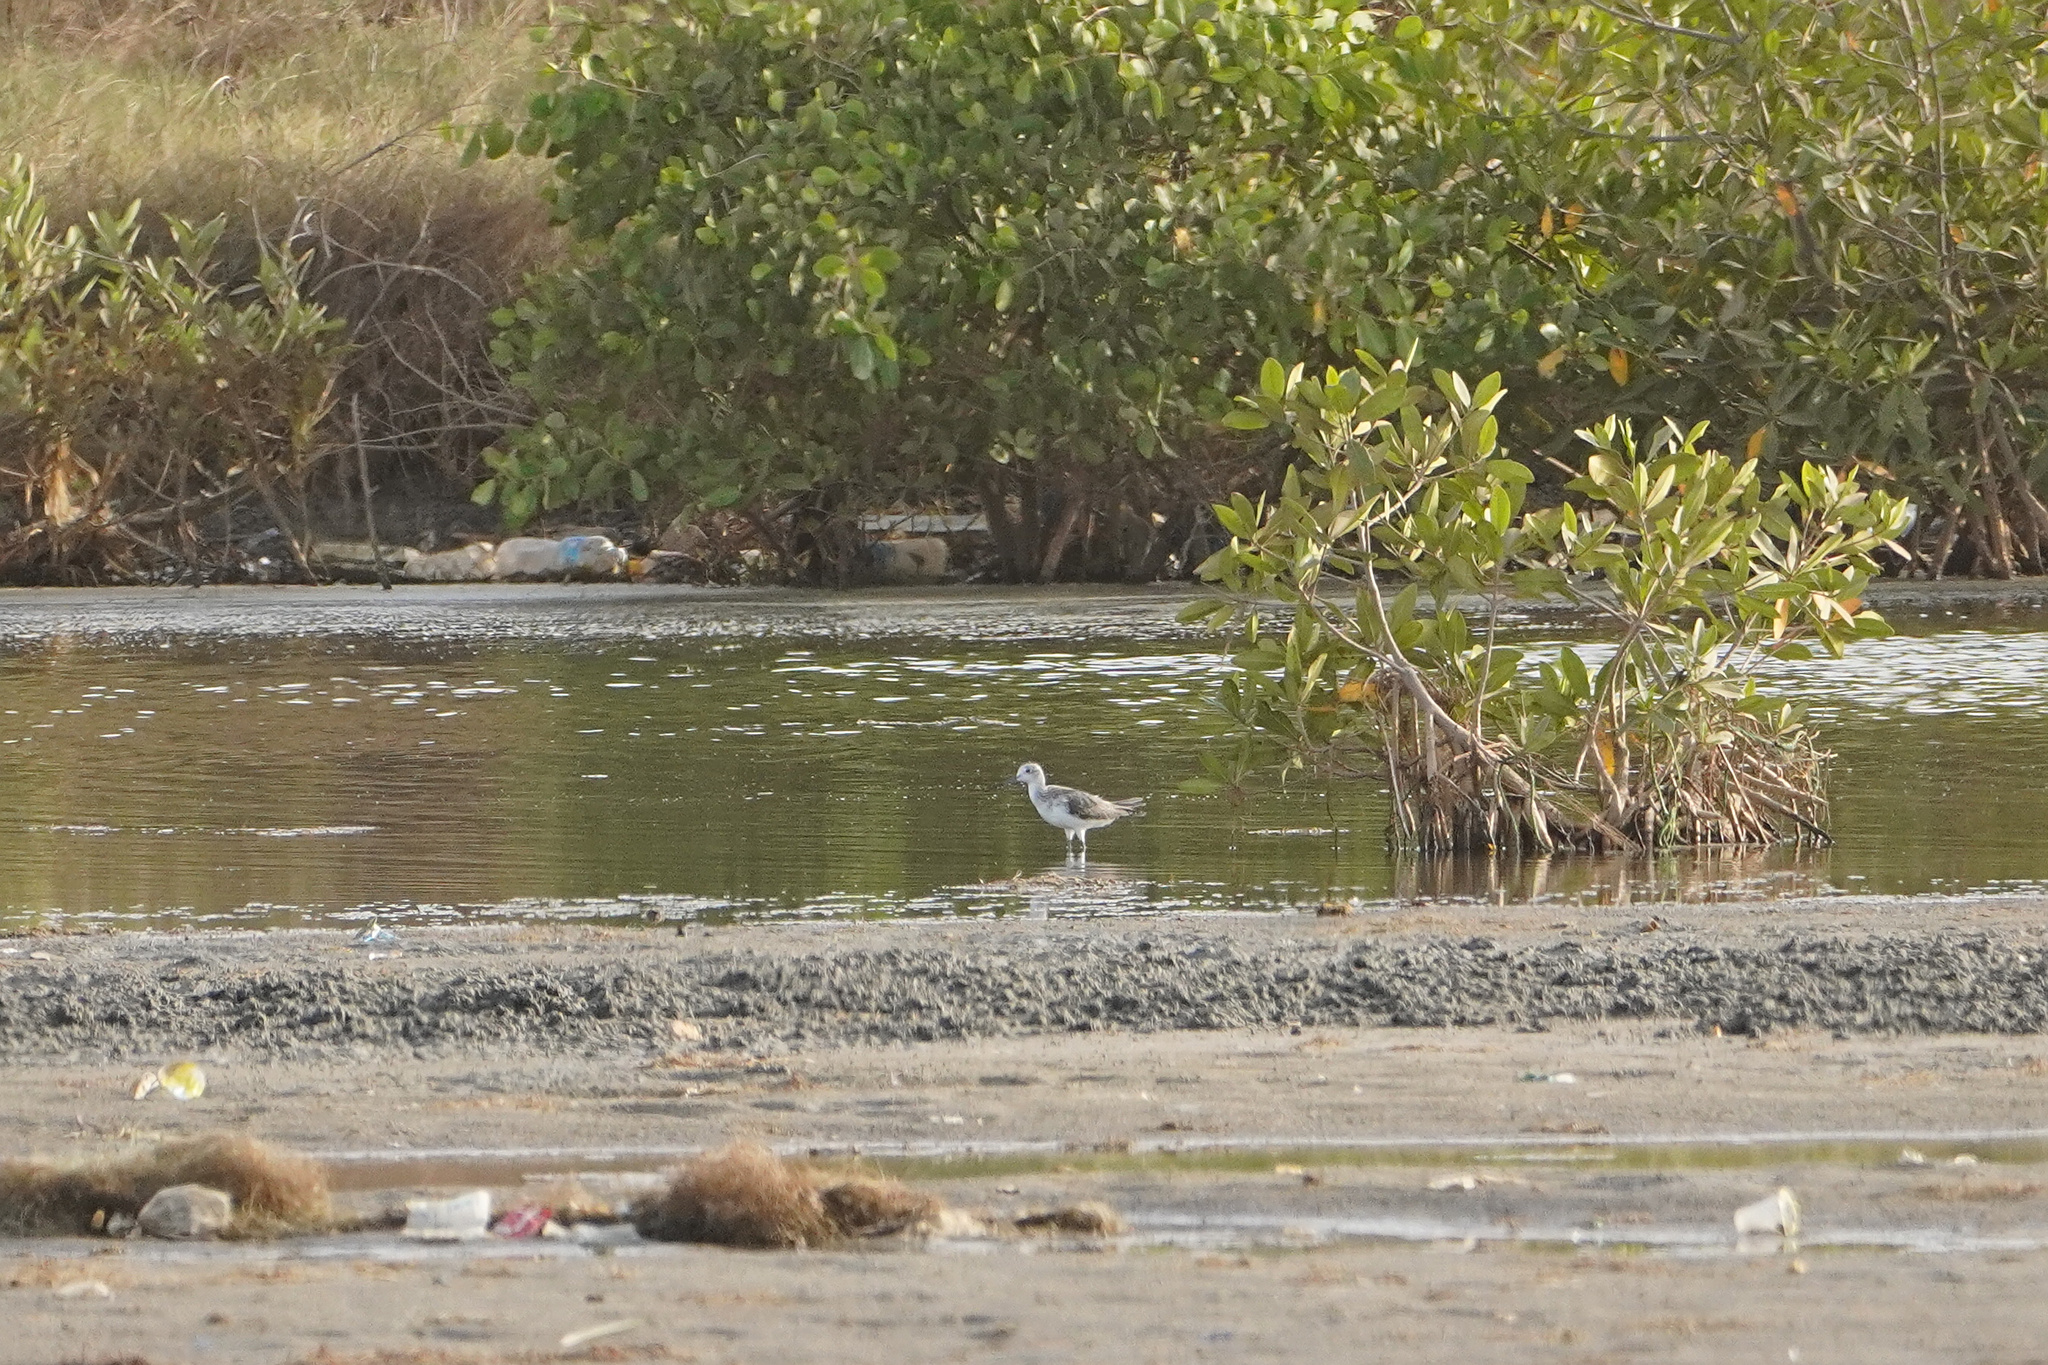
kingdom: Animalia
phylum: Chordata
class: Aves
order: Charadriiformes
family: Scolopacidae
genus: Tringa
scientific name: Tringa nebularia
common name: Common greenshank
